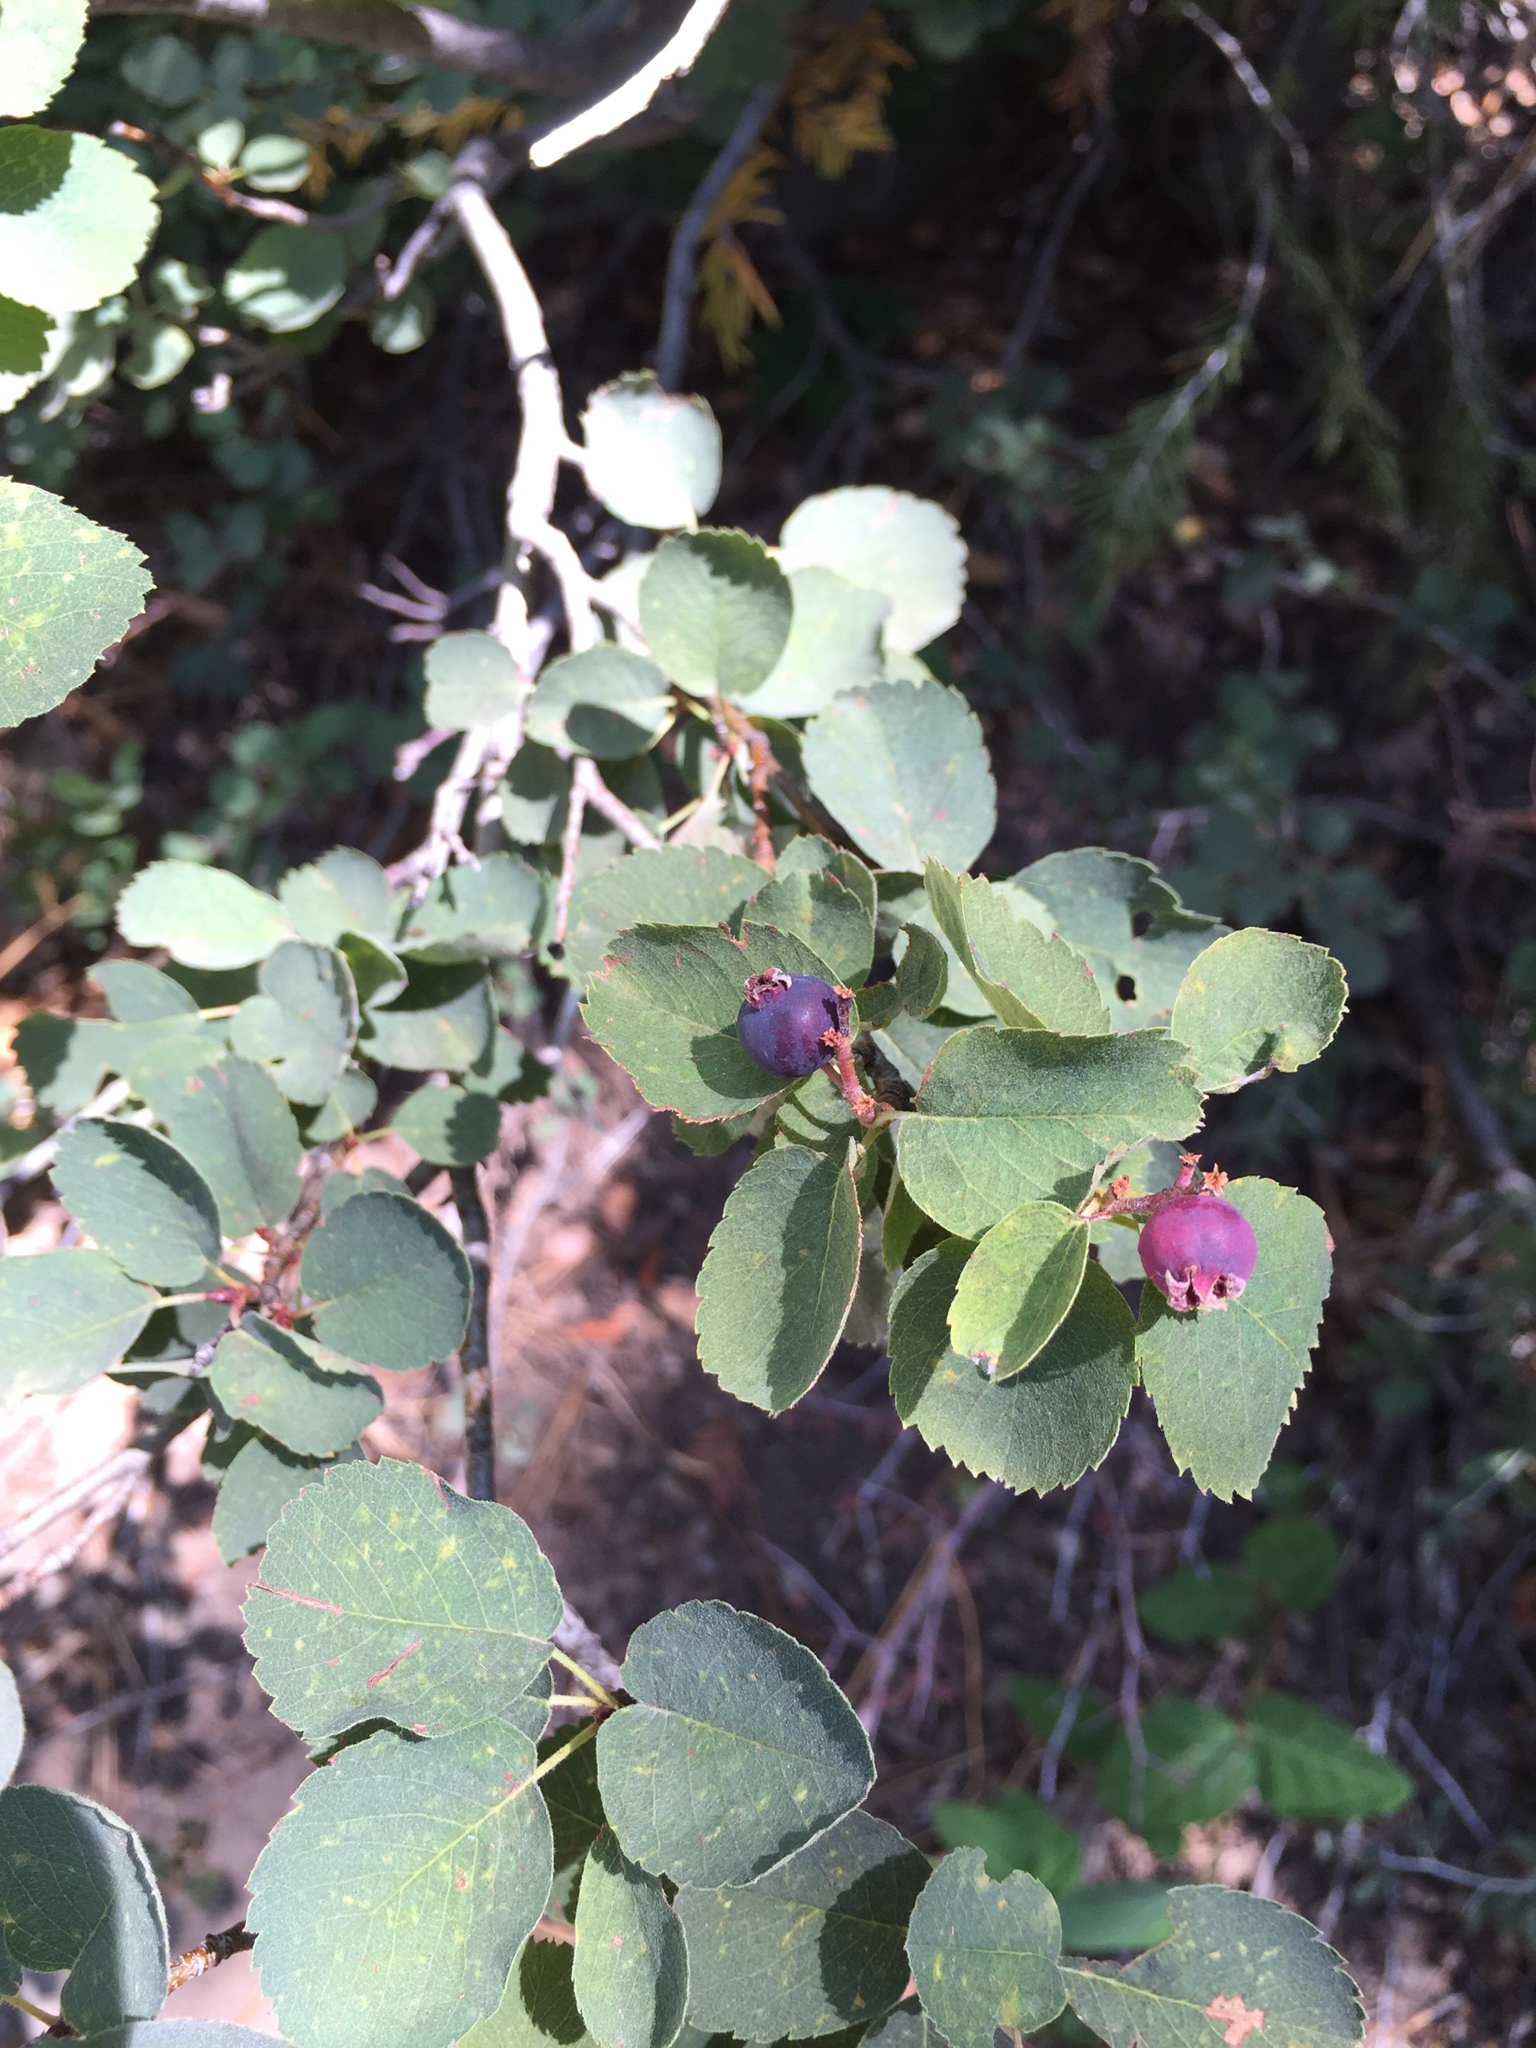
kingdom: Plantae
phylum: Tracheophyta
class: Magnoliopsida
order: Rosales
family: Rosaceae
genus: Amelanchier
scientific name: Amelanchier alnifolia
